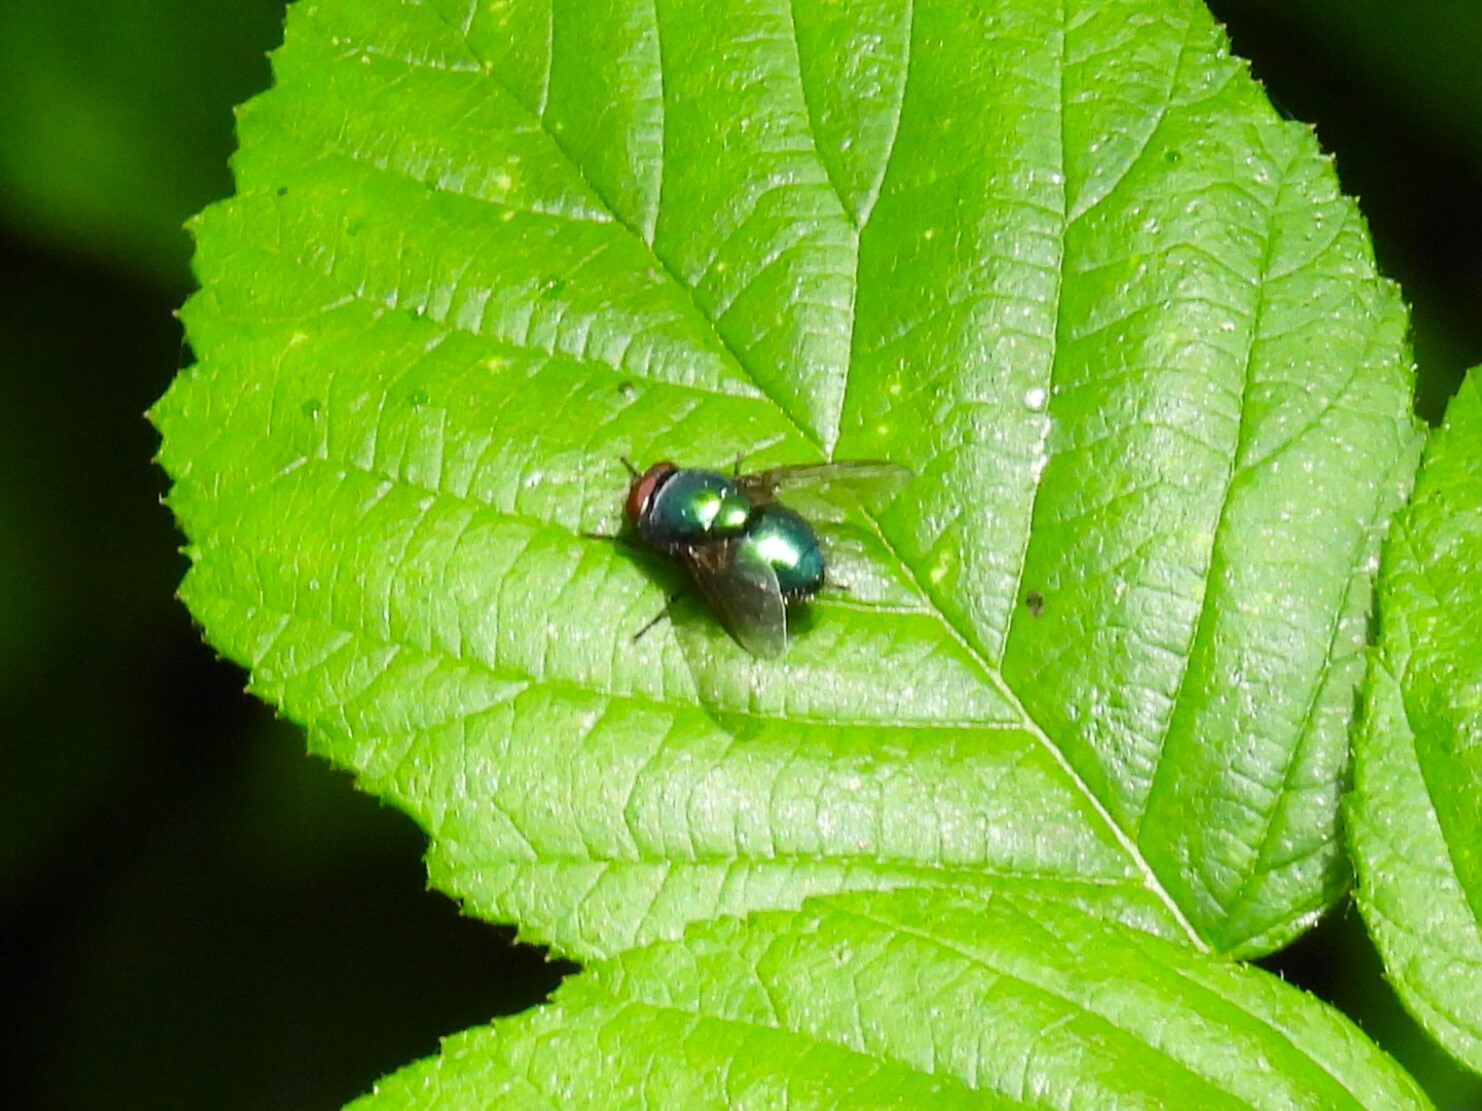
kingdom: Animalia
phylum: Arthropoda
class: Insecta
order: Diptera
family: Calliphoridae
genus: Lucilia
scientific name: Lucilia
